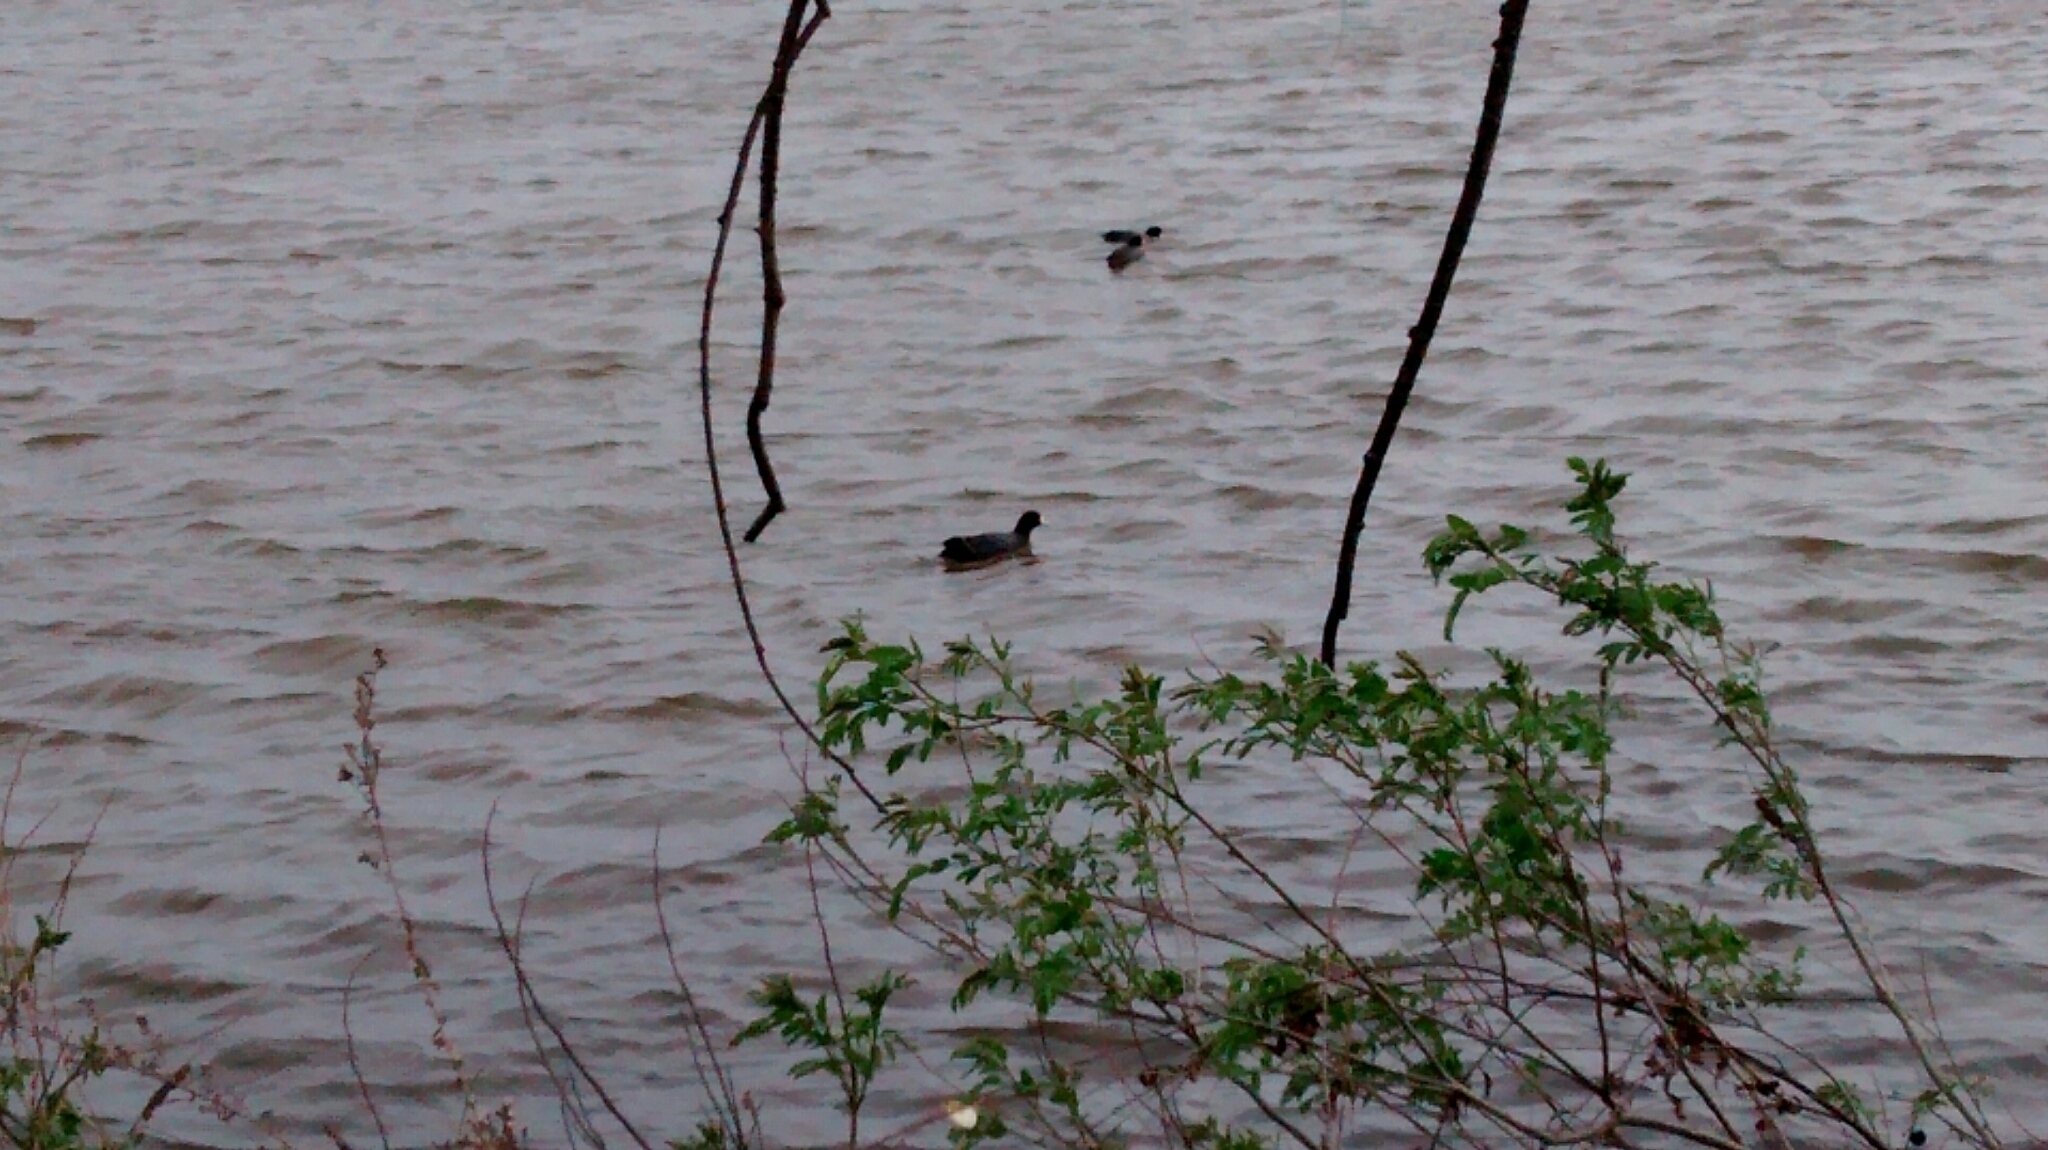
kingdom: Animalia
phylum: Chordata
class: Aves
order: Gruiformes
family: Rallidae
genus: Fulica
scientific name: Fulica americana
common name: American coot
